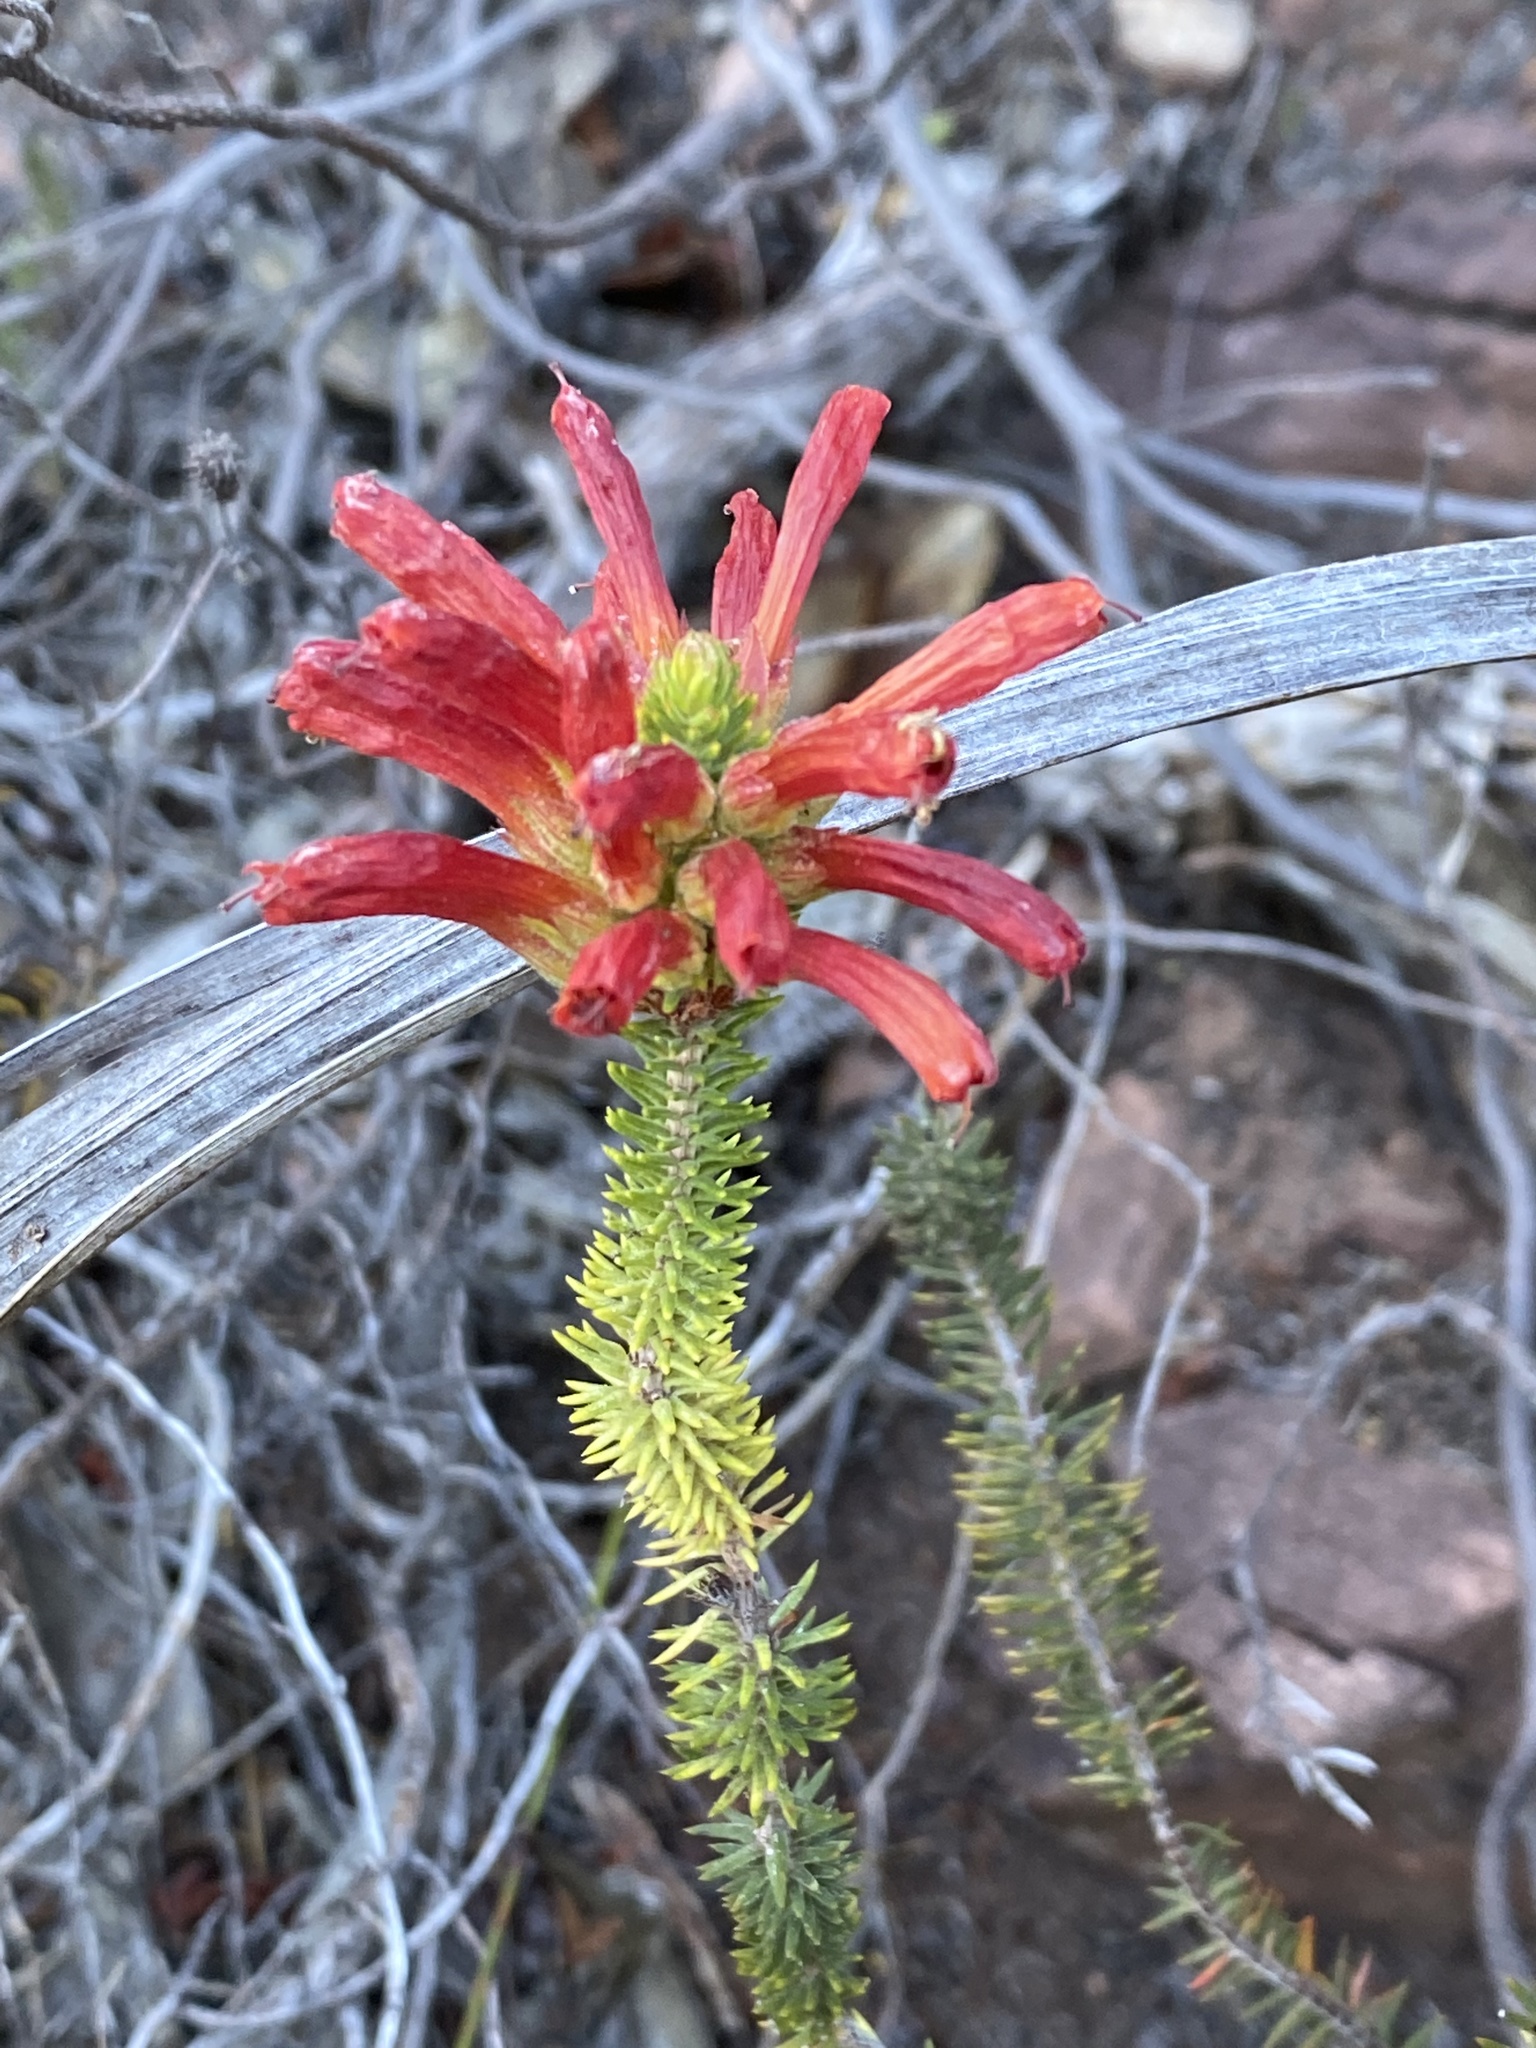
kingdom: Plantae
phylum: Tracheophyta
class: Magnoliopsida
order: Ericales
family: Ericaceae
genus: Erica
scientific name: Erica abietina
